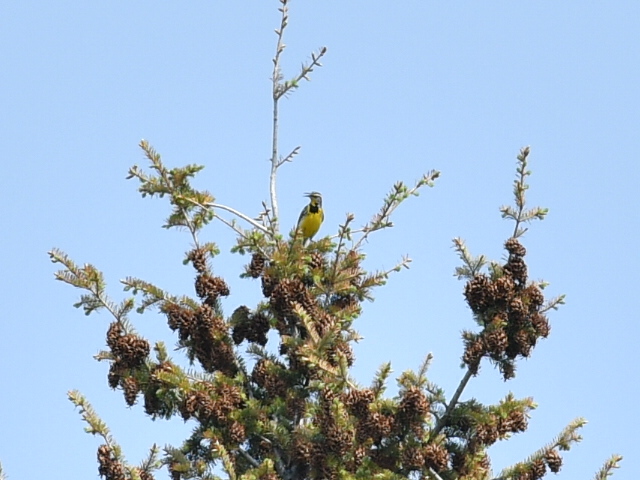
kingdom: Animalia
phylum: Chordata
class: Aves
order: Passeriformes
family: Icteridae
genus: Sturnella
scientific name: Sturnella neglecta
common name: Western meadowlark
